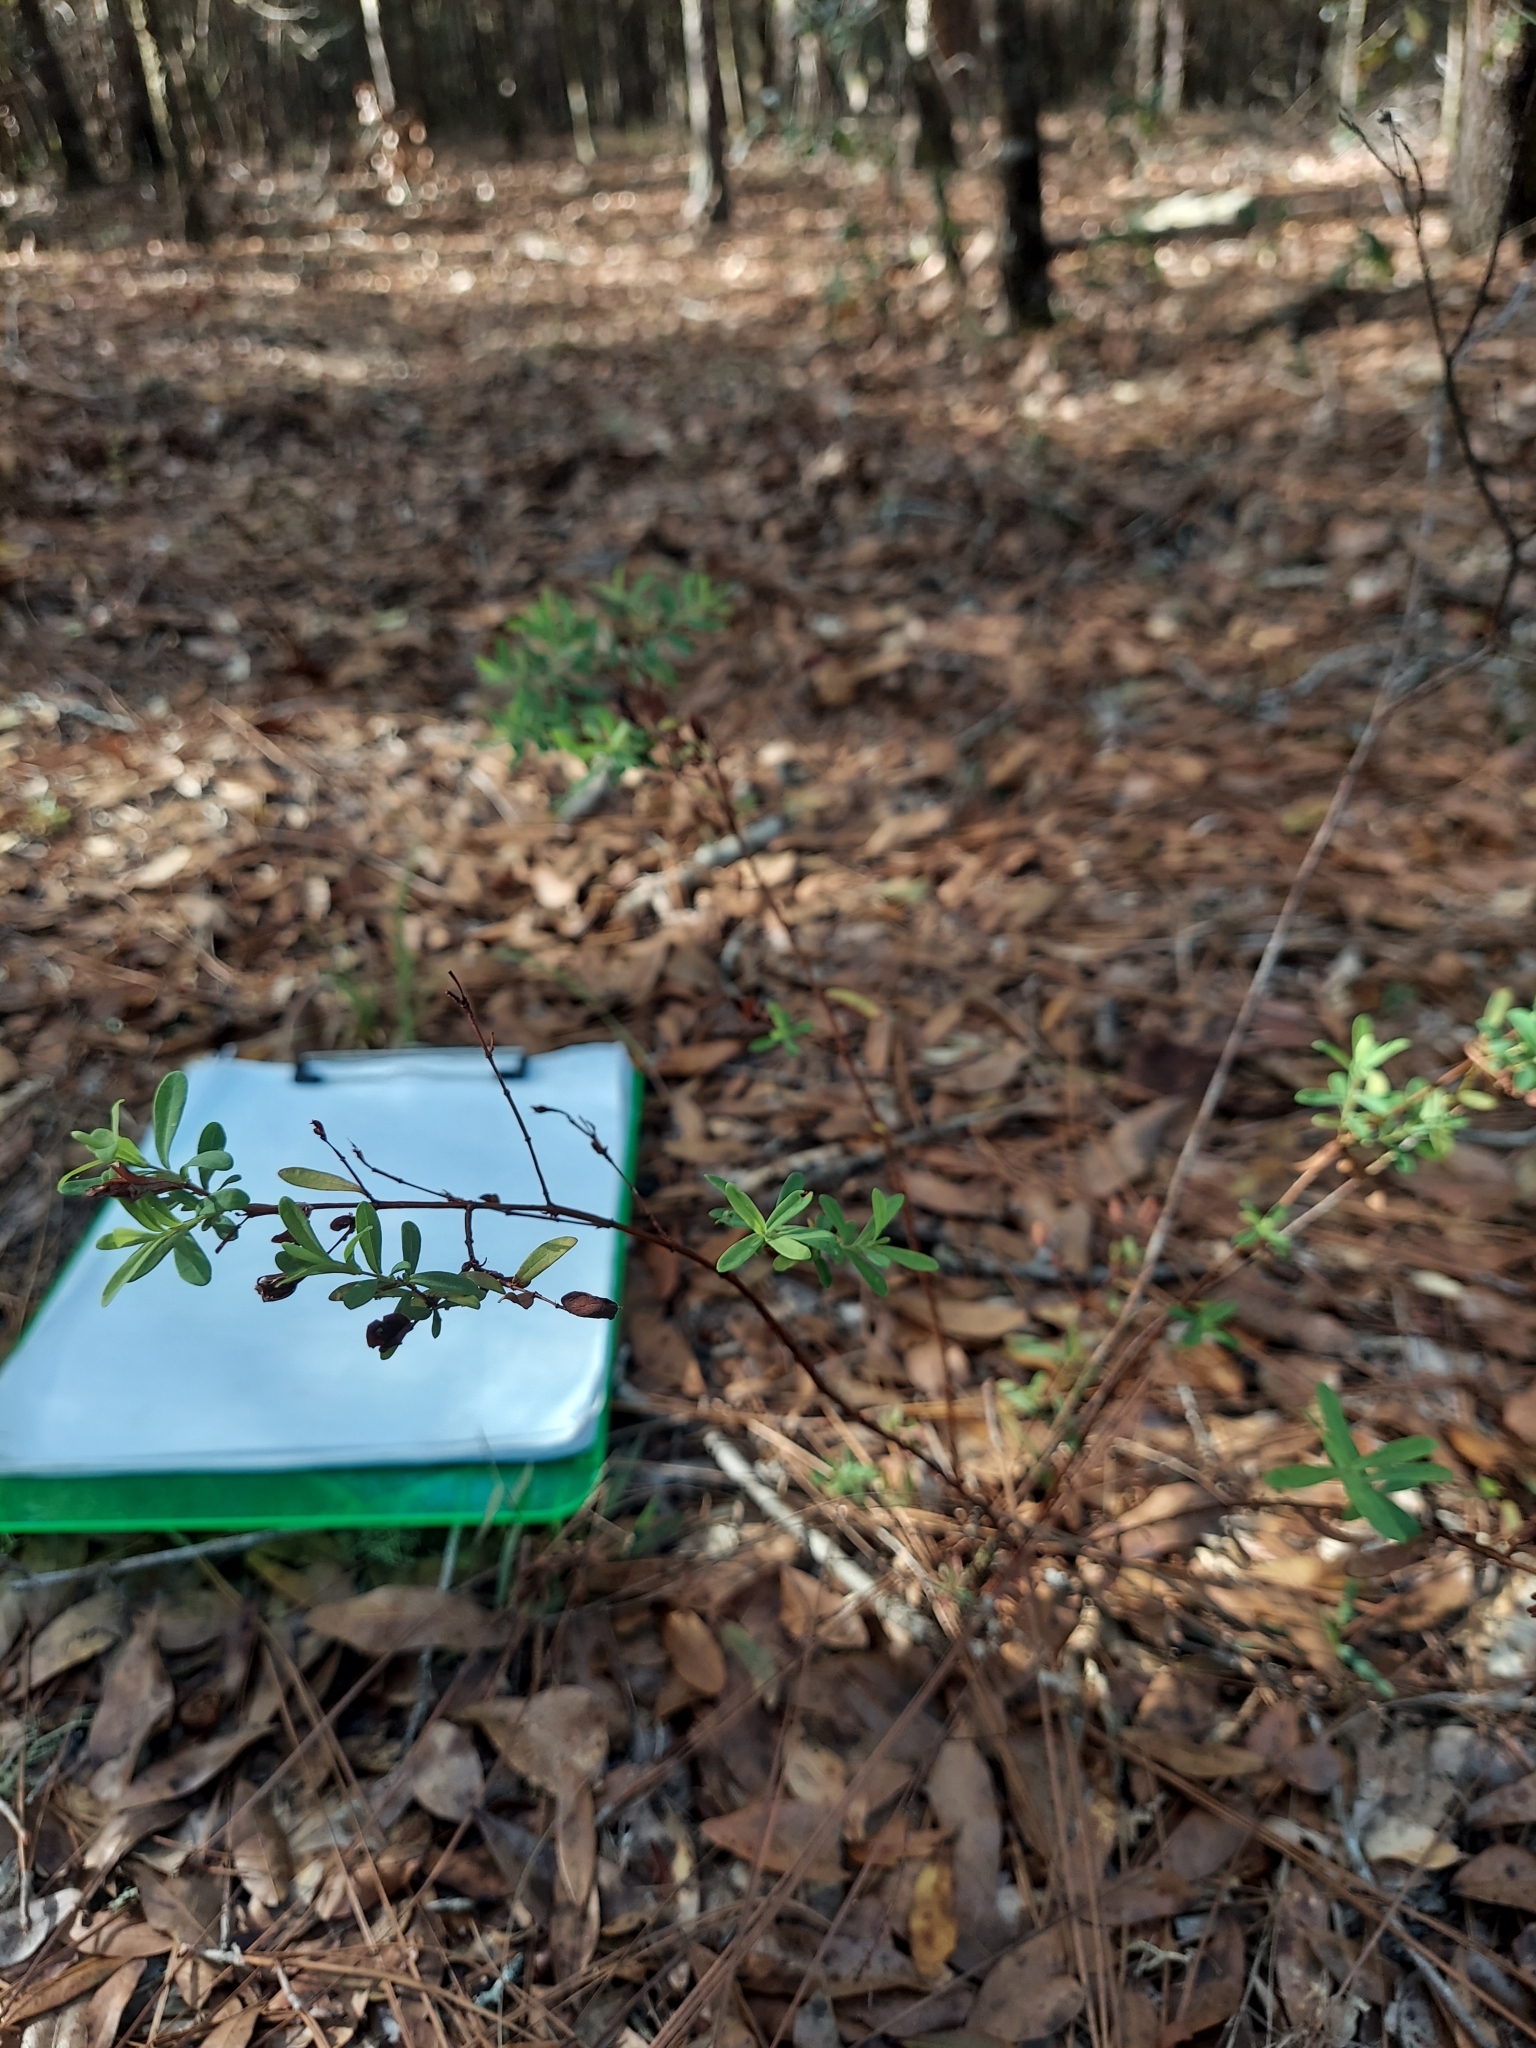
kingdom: Plantae
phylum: Tracheophyta
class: Magnoliopsida
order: Malpighiales
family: Hypericaceae
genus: Hypericum
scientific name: Hypericum hypericoides
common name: St. andrew's cross
